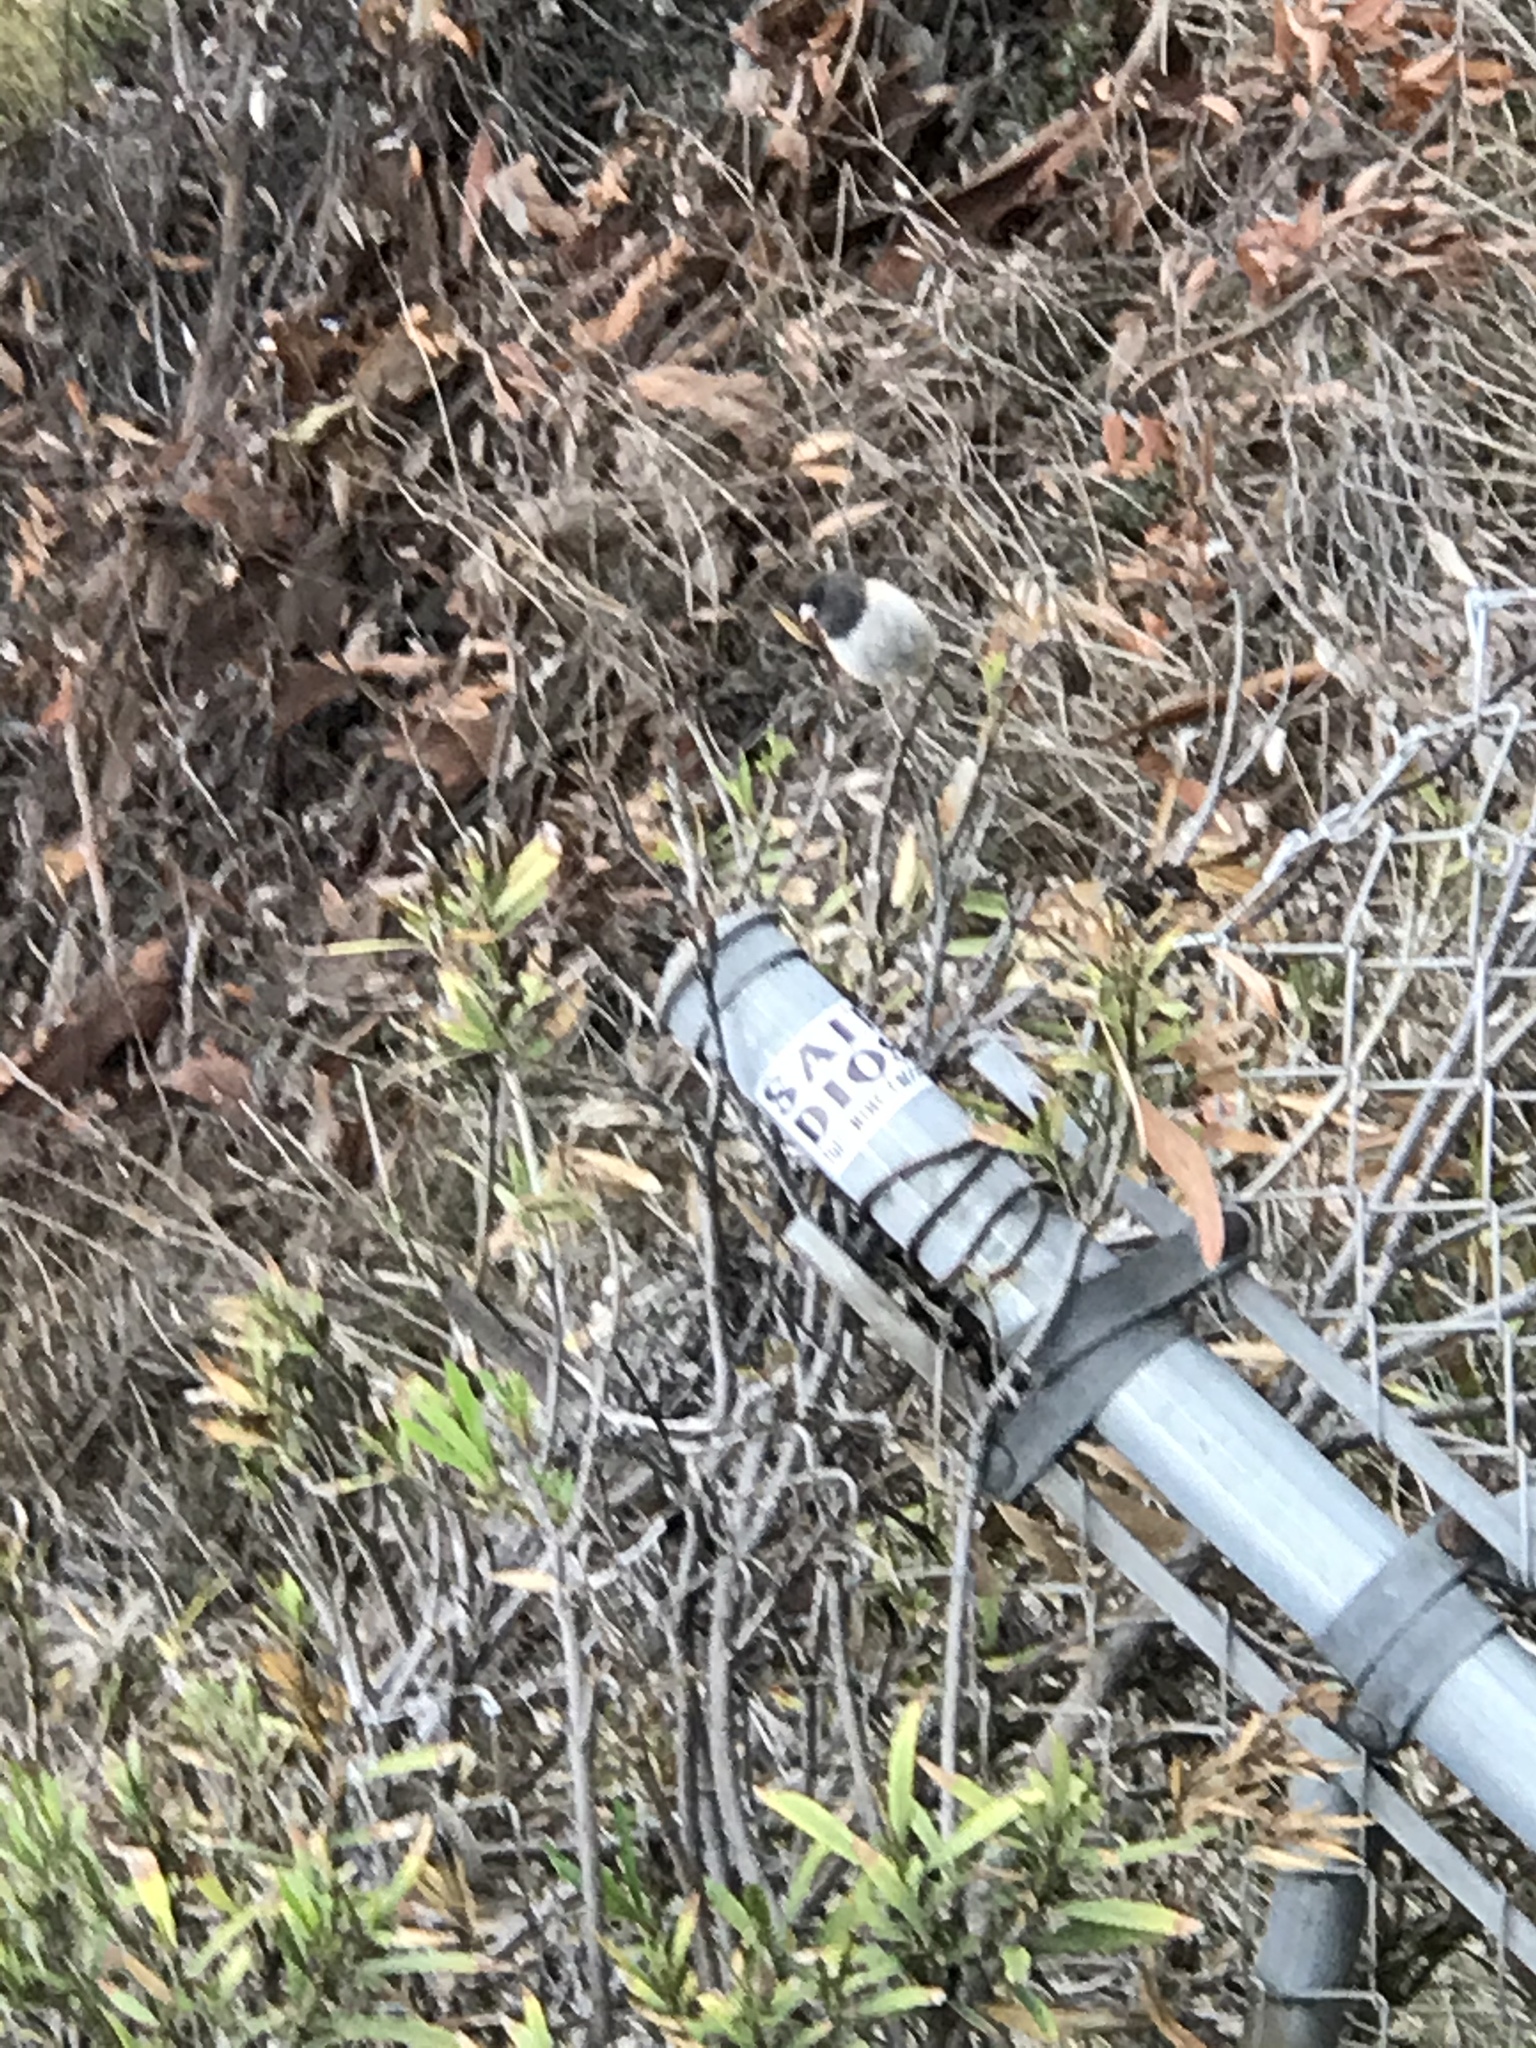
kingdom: Animalia
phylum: Chordata
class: Aves
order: Passeriformes
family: Passerellidae
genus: Junco
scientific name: Junco hyemalis
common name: Dark-eyed junco
